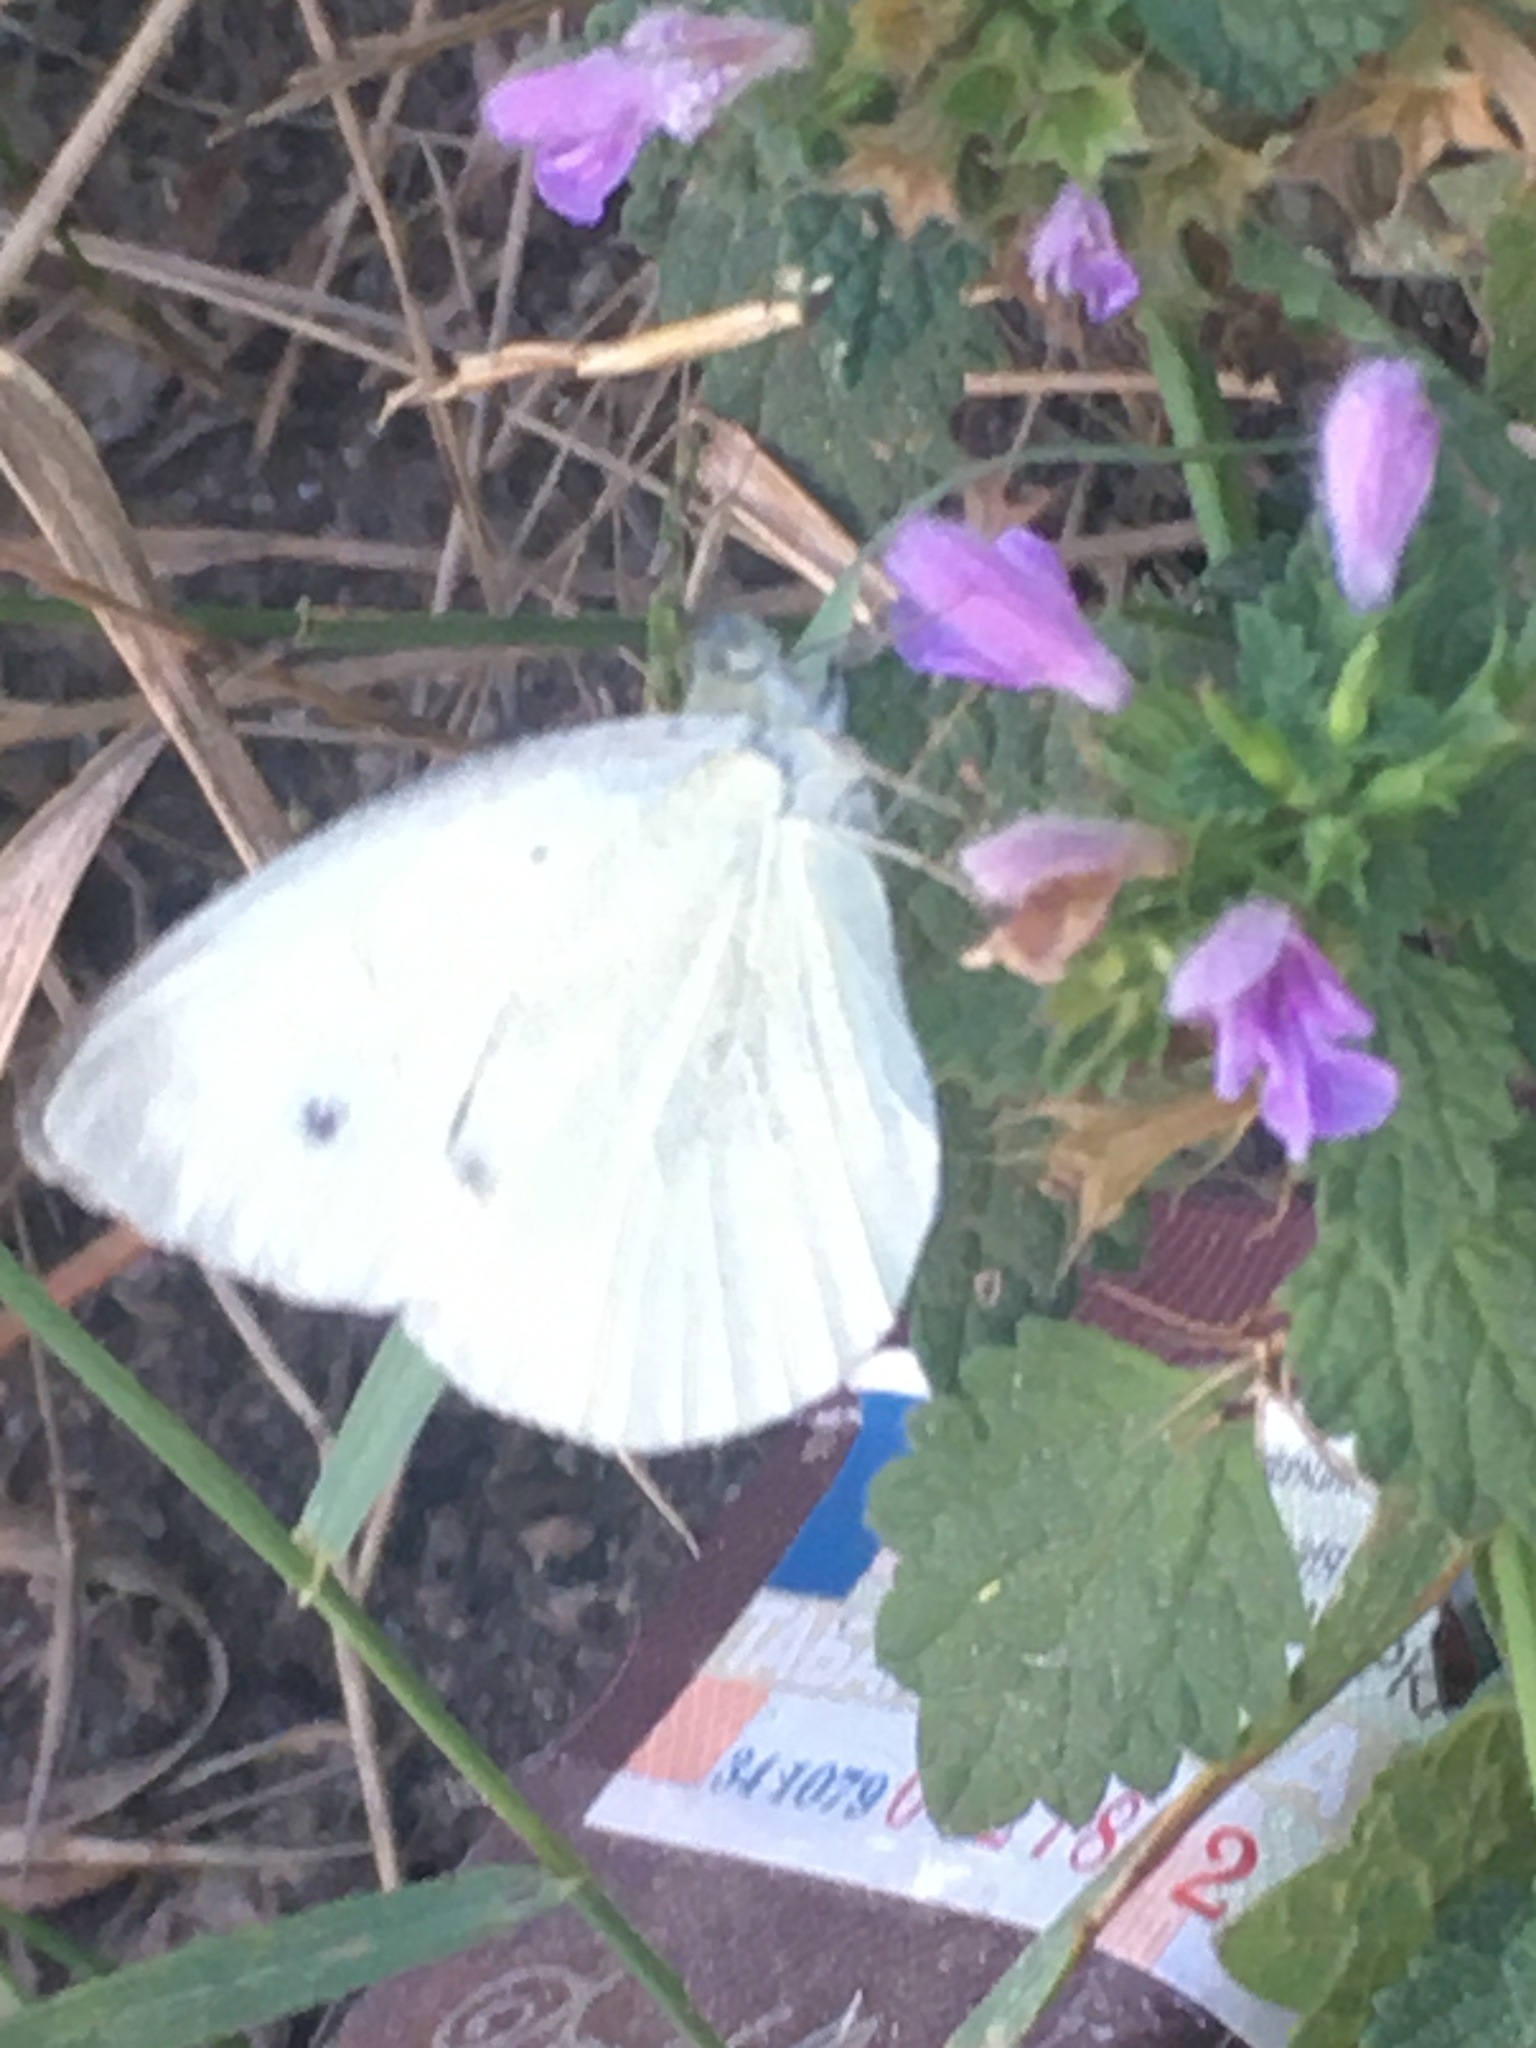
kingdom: Animalia
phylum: Arthropoda
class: Insecta
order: Lepidoptera
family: Pieridae
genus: Pieris
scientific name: Pieris napi
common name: Green-veined white
